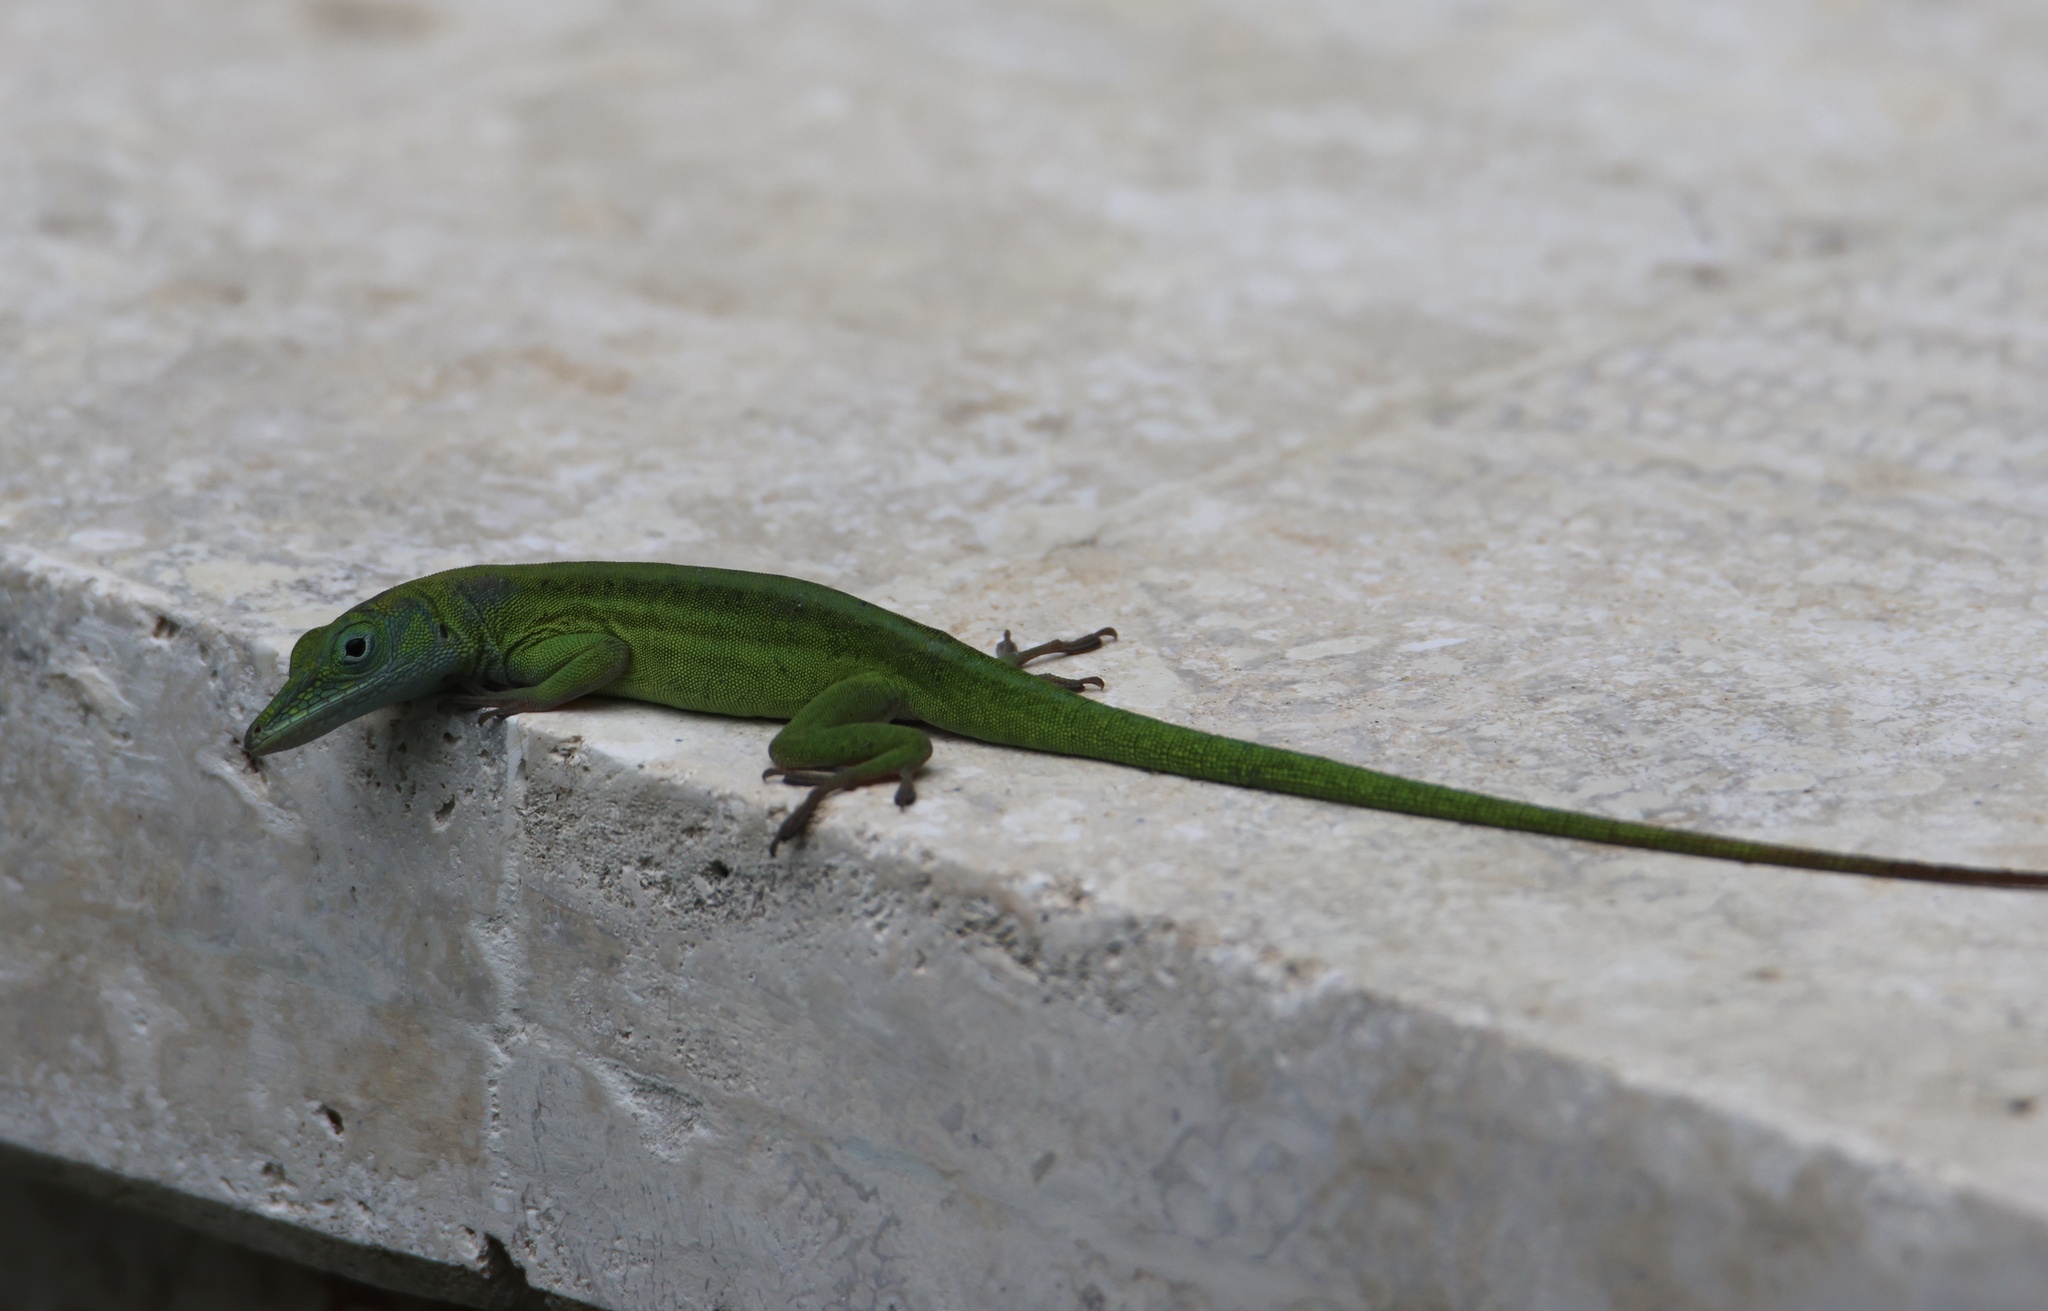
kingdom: Animalia
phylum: Chordata
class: Squamata
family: Dactyloidae
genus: Anolis
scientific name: Anolis callainus
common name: Dominican green anole
